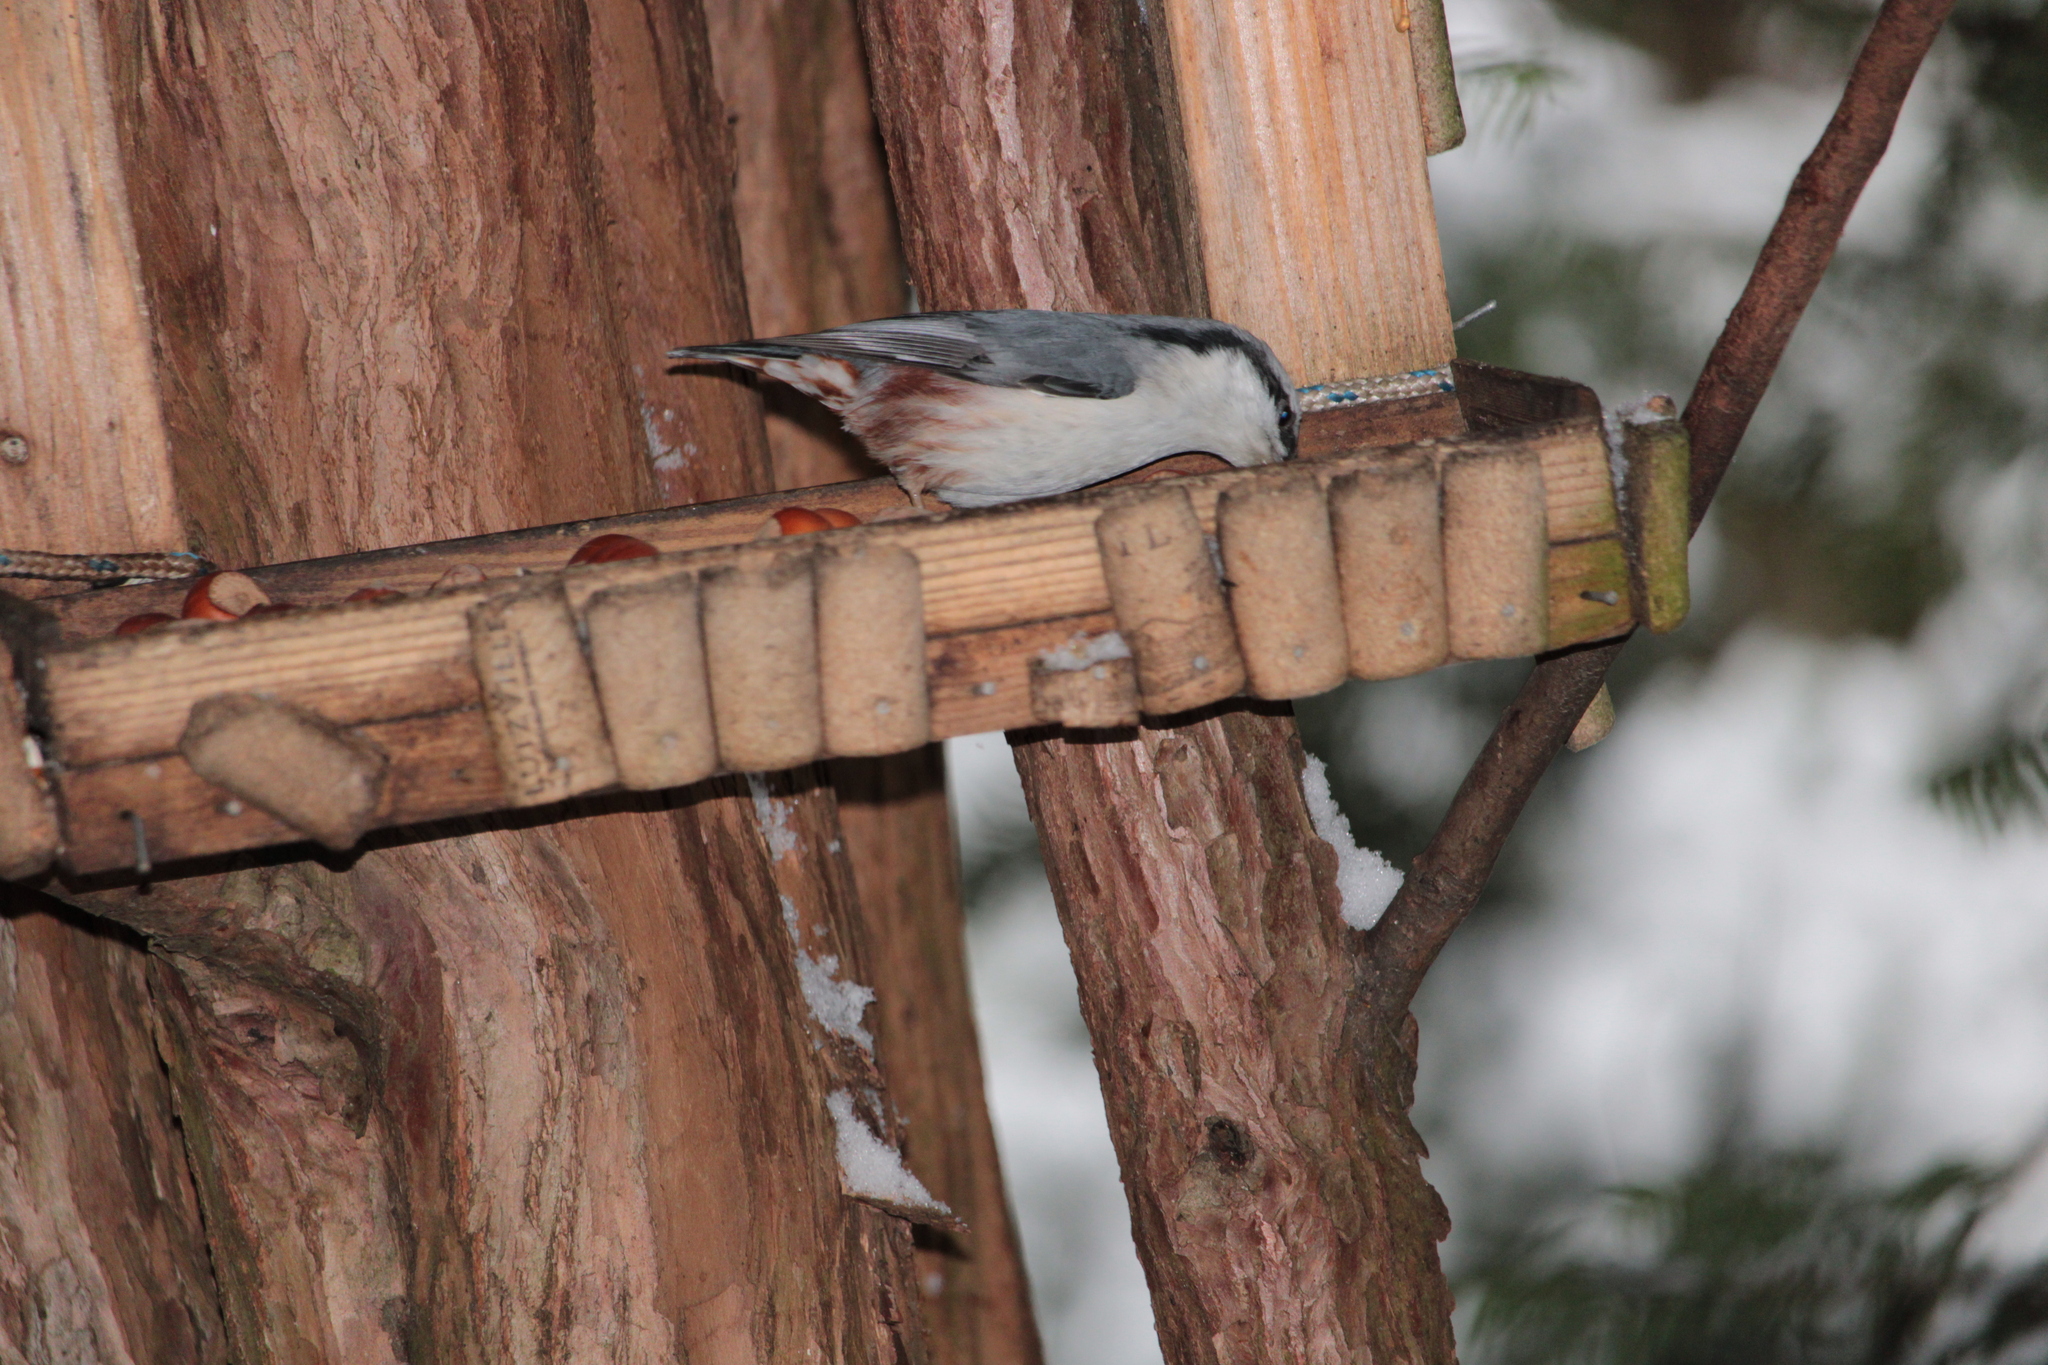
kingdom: Animalia
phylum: Chordata
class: Aves
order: Passeriformes
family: Sittidae
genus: Sitta
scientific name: Sitta europaea
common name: Eurasian nuthatch
